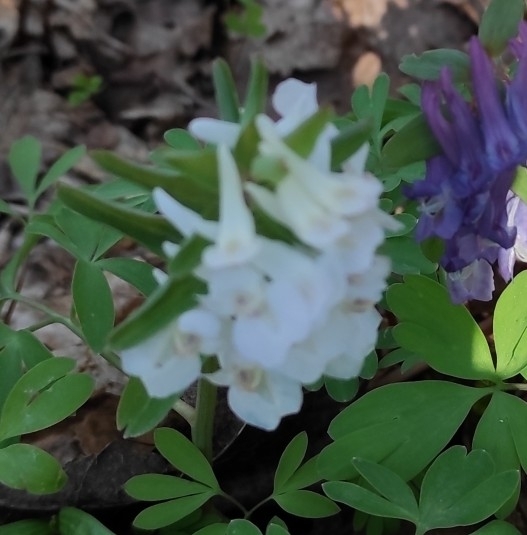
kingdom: Plantae
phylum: Tracheophyta
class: Magnoliopsida
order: Ranunculales
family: Papaveraceae
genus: Corydalis
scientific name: Corydalis solida
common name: Bird-in-a-bush
